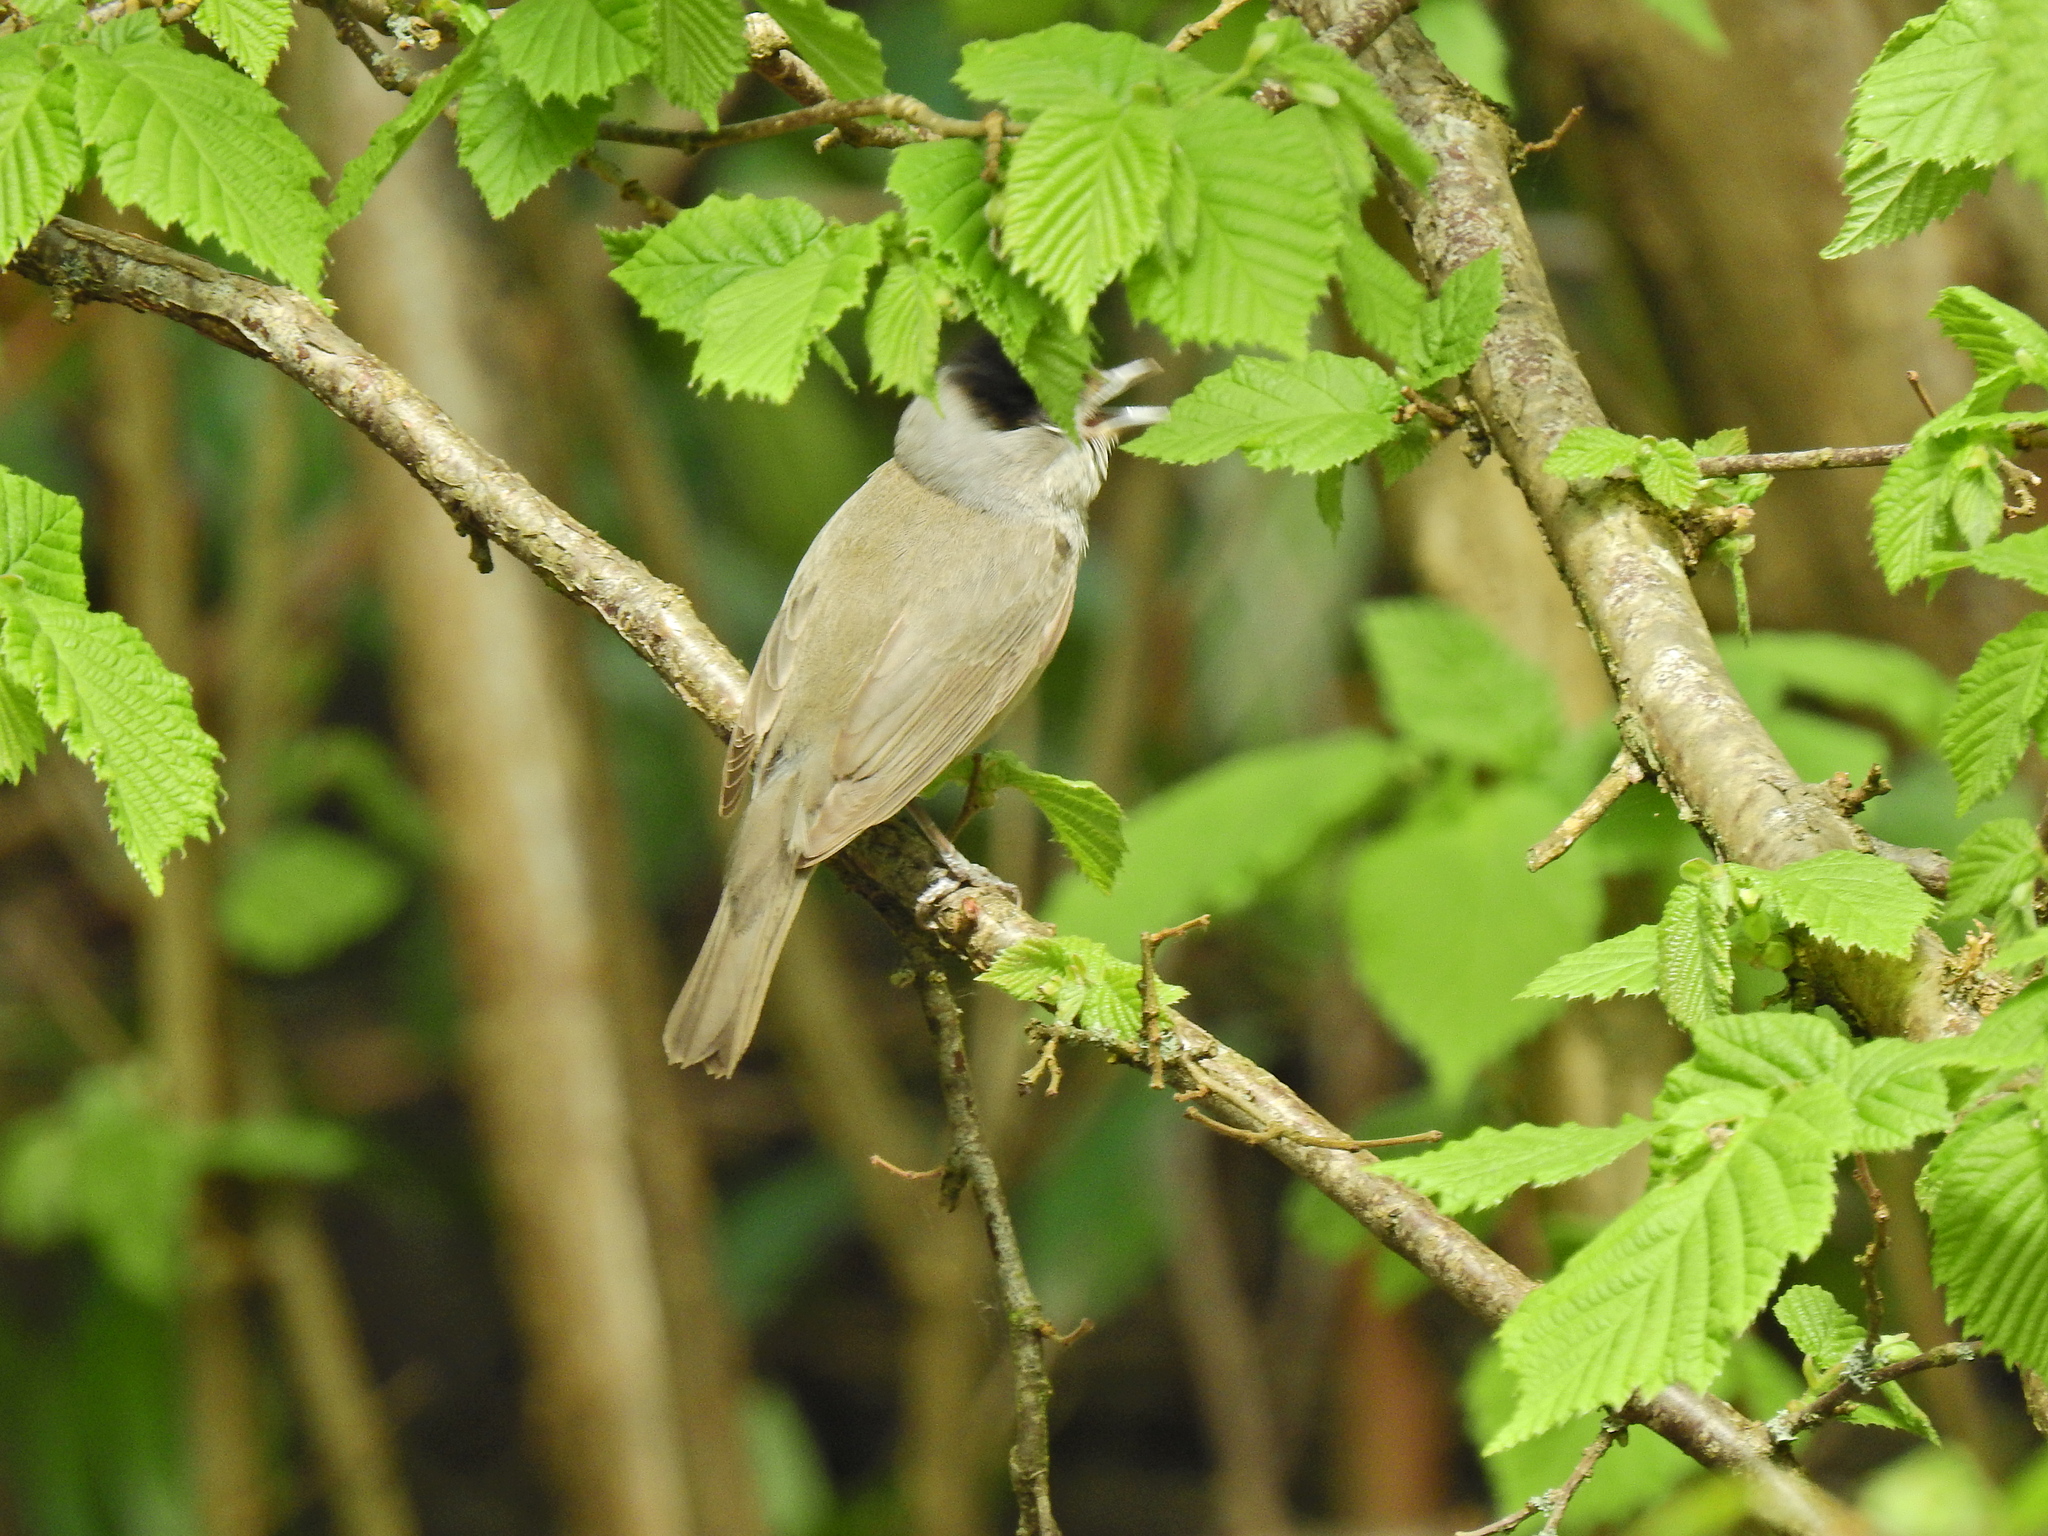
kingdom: Animalia
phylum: Chordata
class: Aves
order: Passeriformes
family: Sylviidae
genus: Sylvia
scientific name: Sylvia atricapilla
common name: Eurasian blackcap
